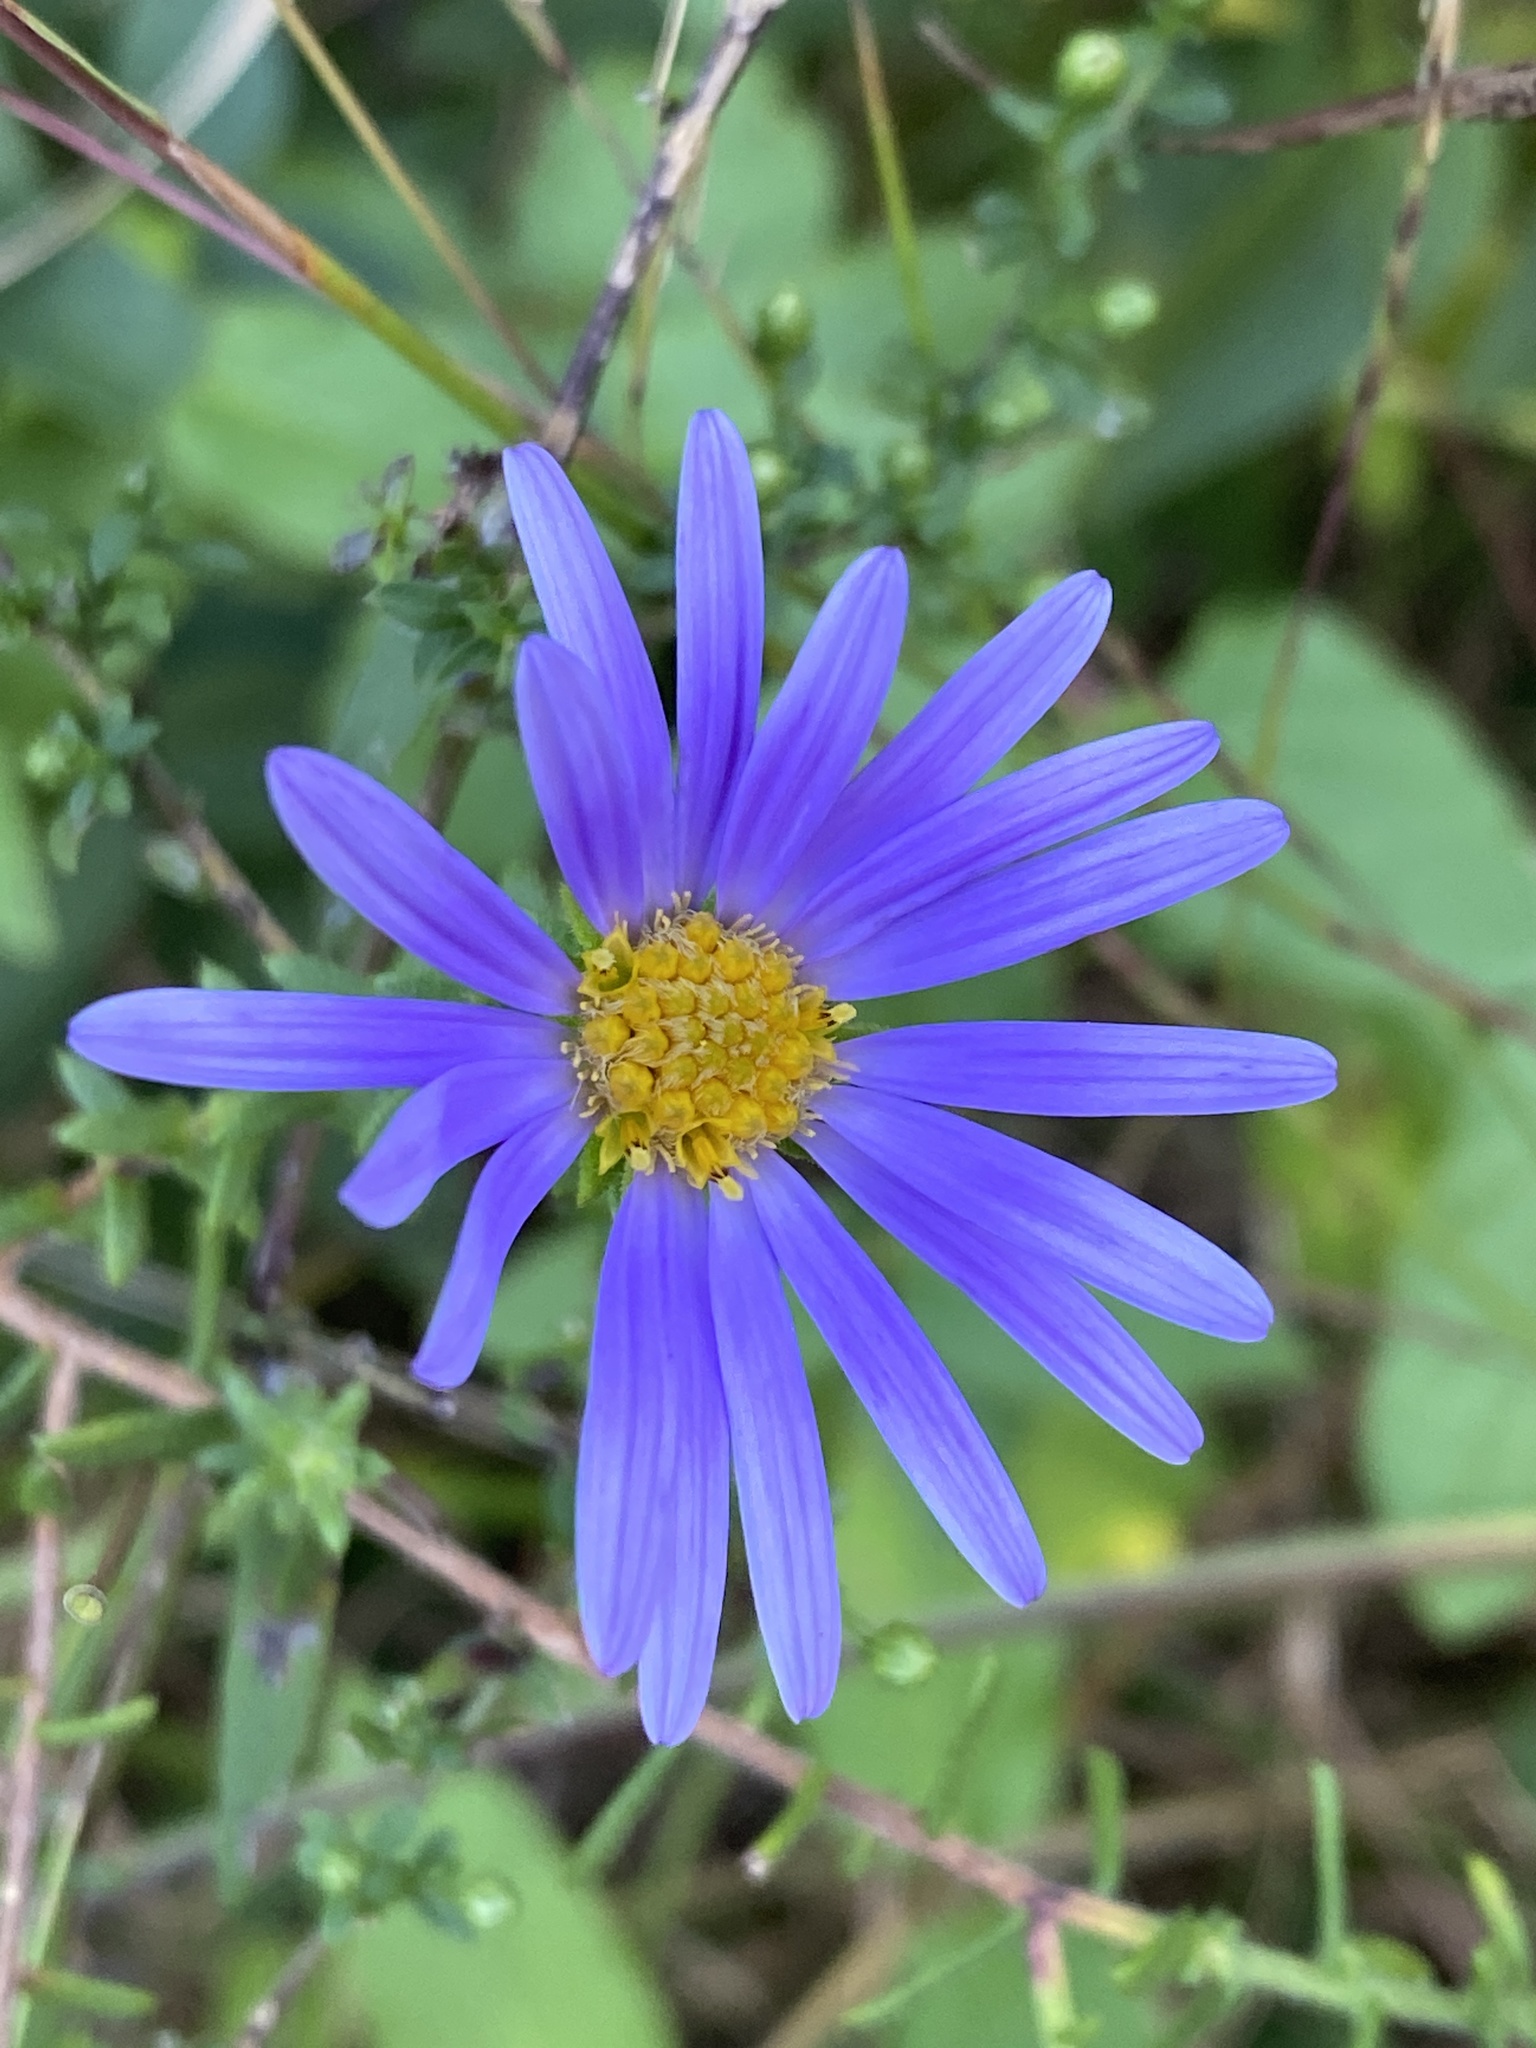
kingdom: Plantae
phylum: Tracheophyta
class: Magnoliopsida
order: Asterales
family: Asteraceae
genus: Symphyotrichum
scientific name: Symphyotrichum grandiflorum
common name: Big-head aster
